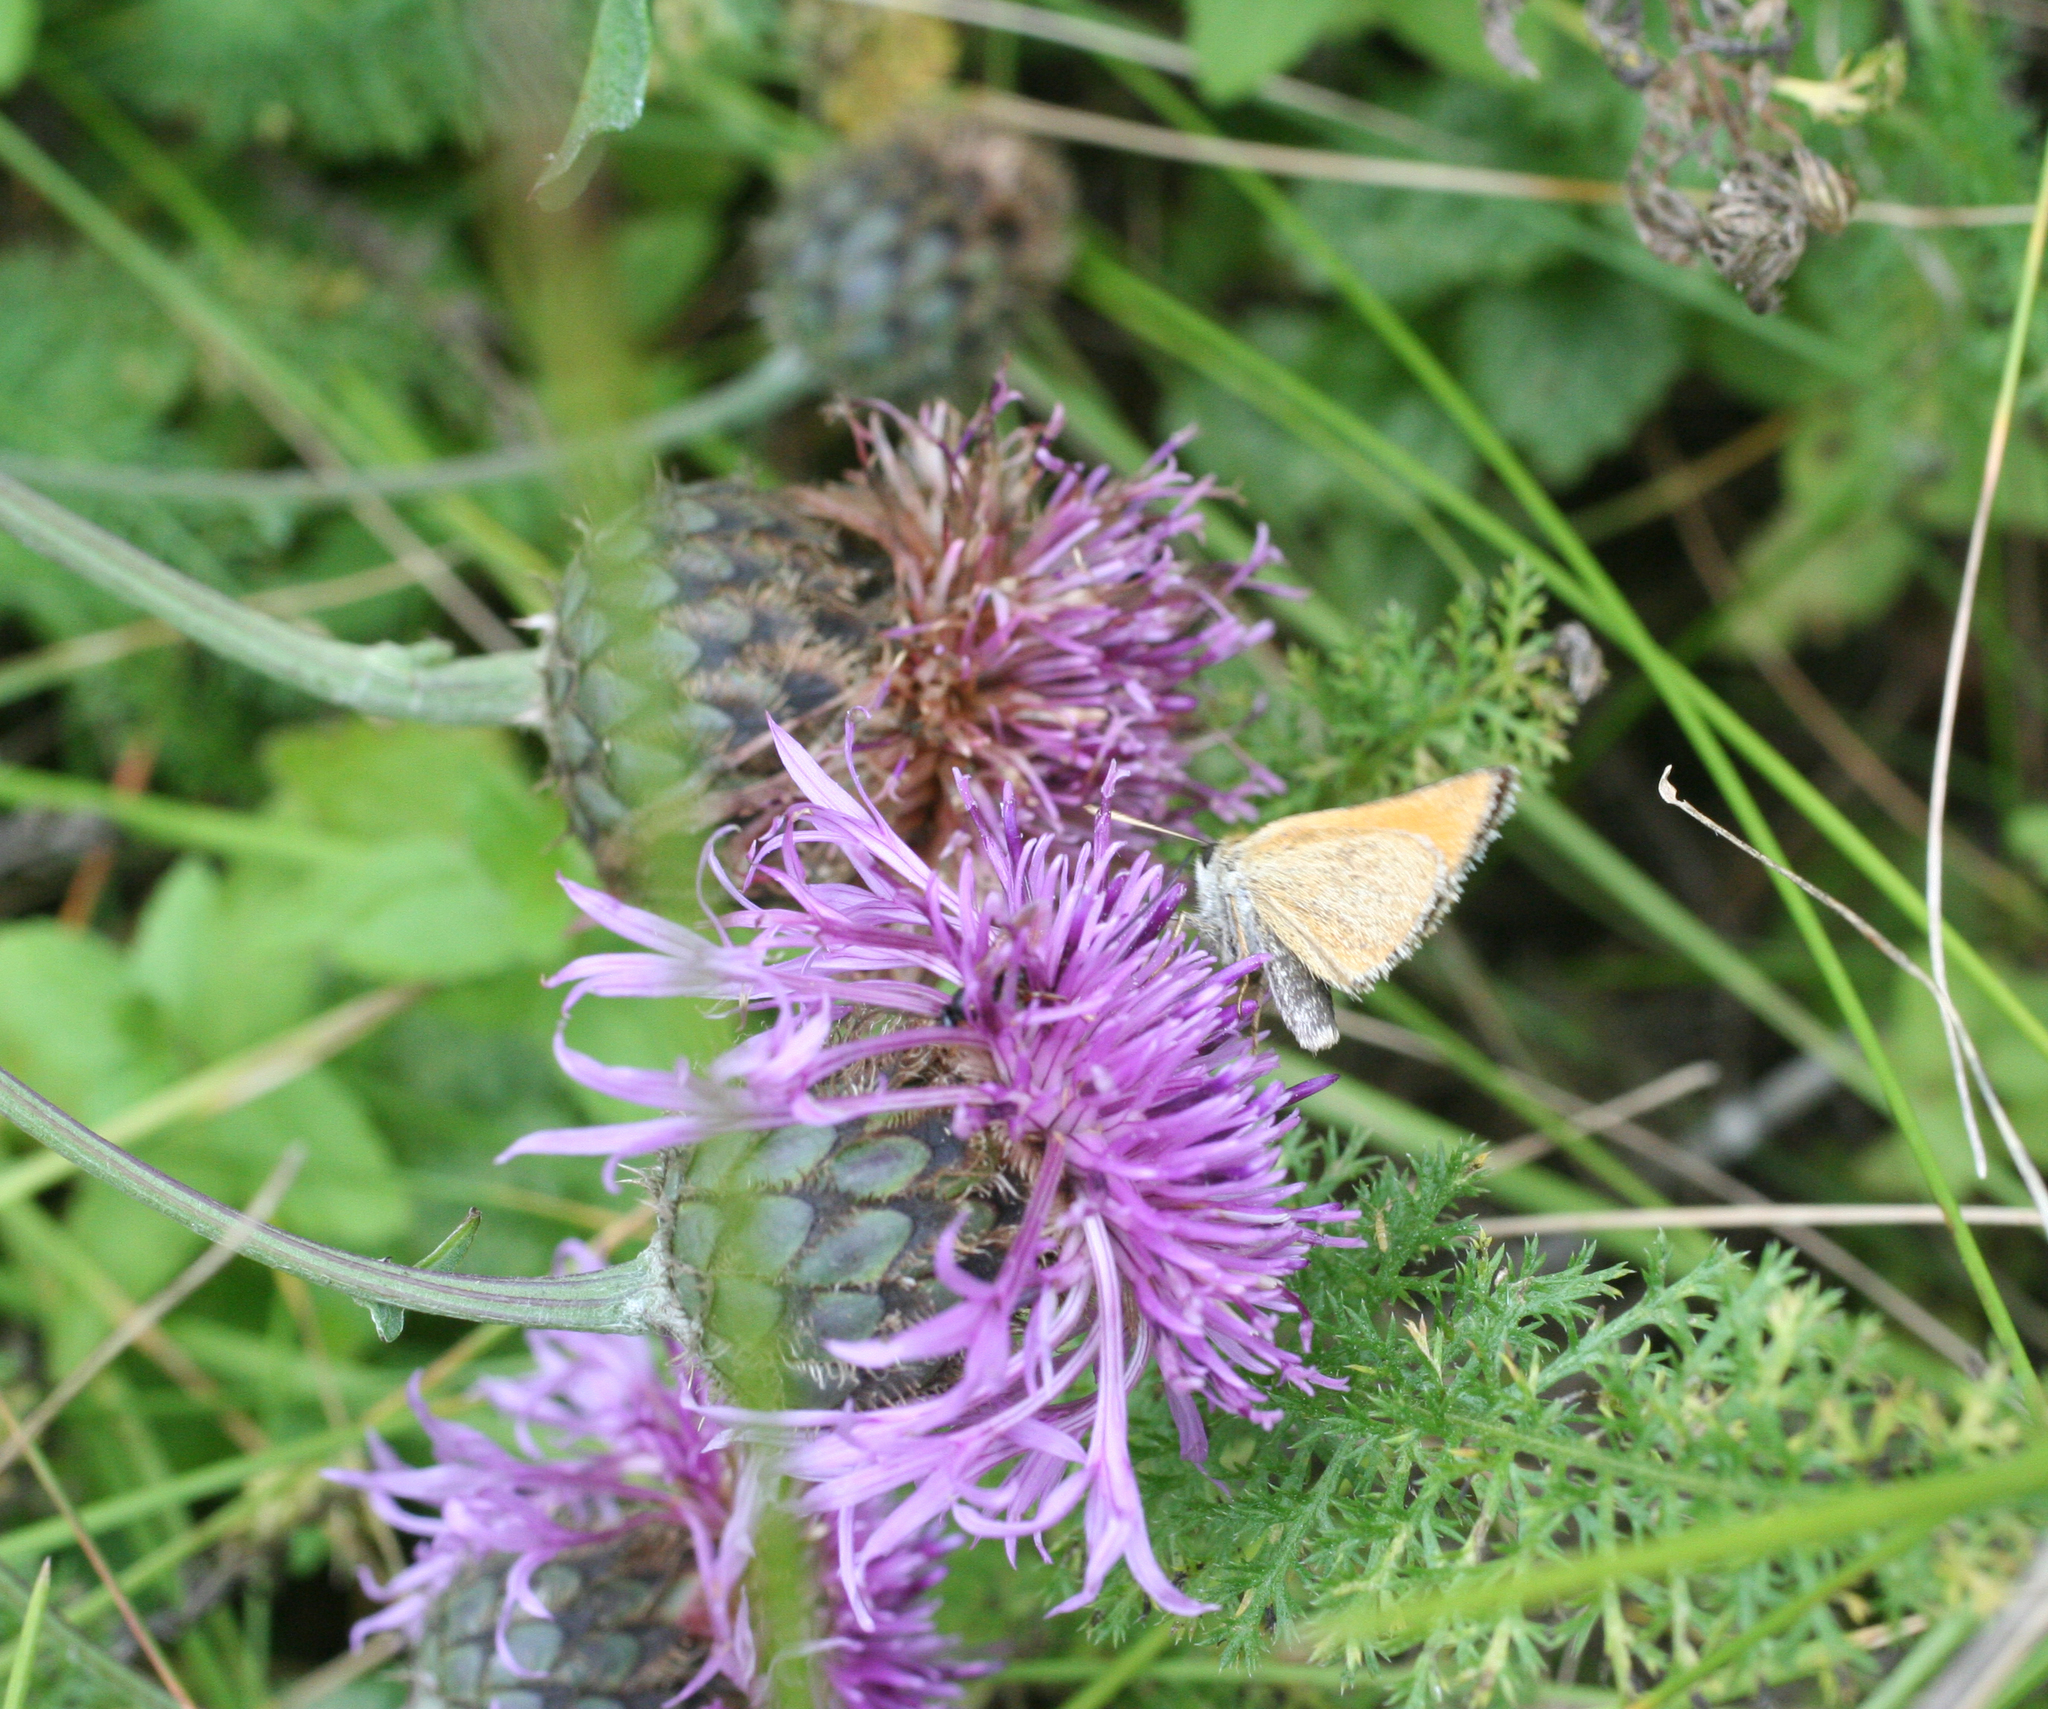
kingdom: Plantae
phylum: Tracheophyta
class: Magnoliopsida
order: Asterales
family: Asteraceae
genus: Centaurea
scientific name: Centaurea scabiosa
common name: Greater knapweed
